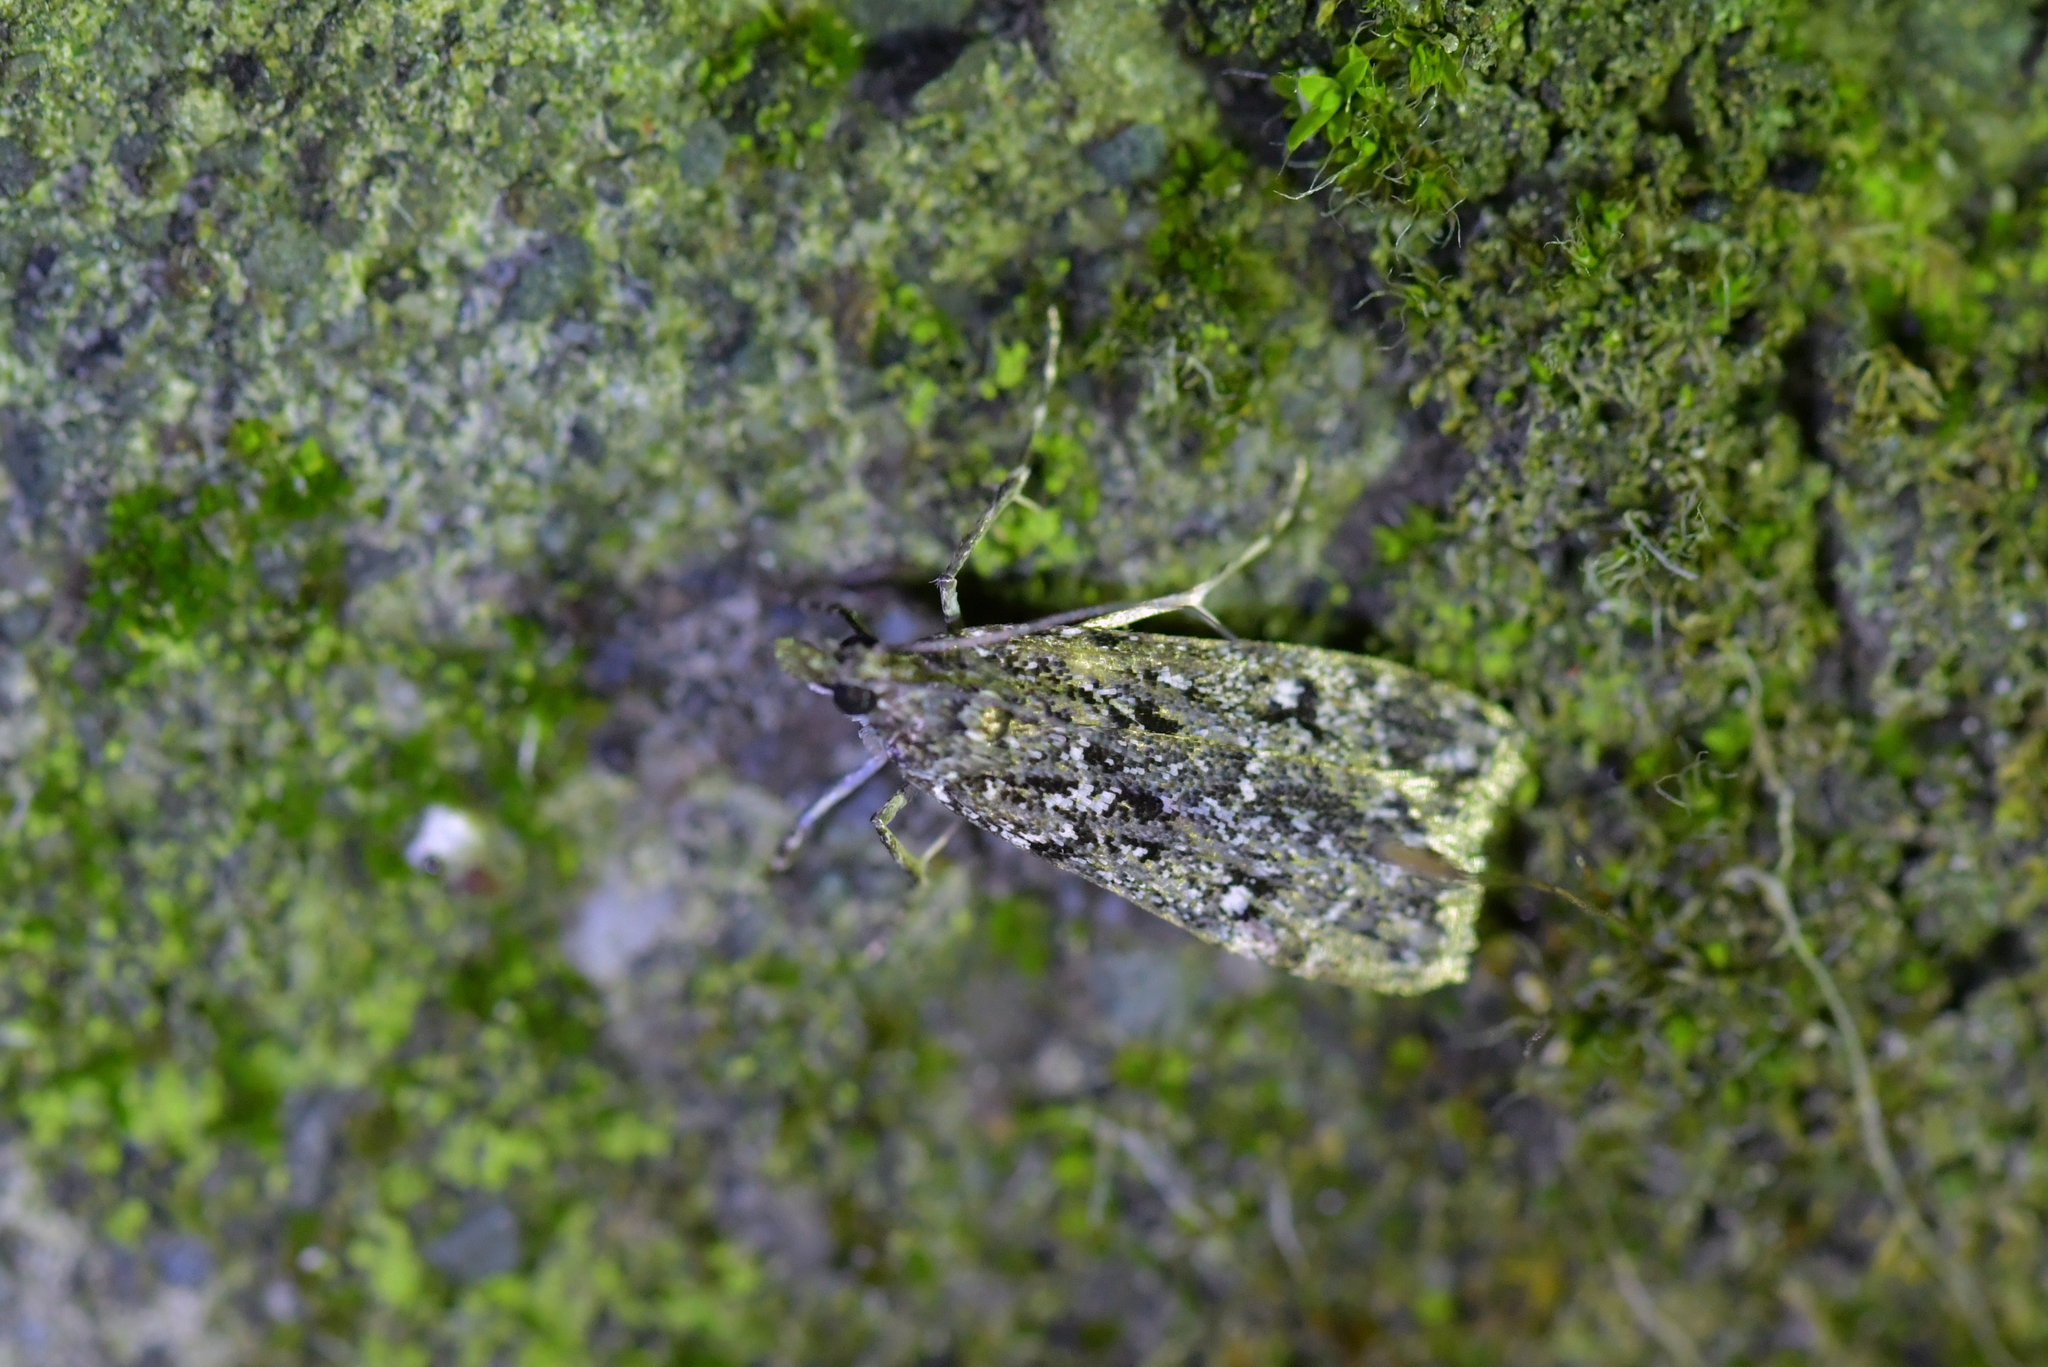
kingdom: Animalia
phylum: Arthropoda
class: Insecta
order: Lepidoptera
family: Crambidae
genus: Eudonia
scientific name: Eudonia philerga
